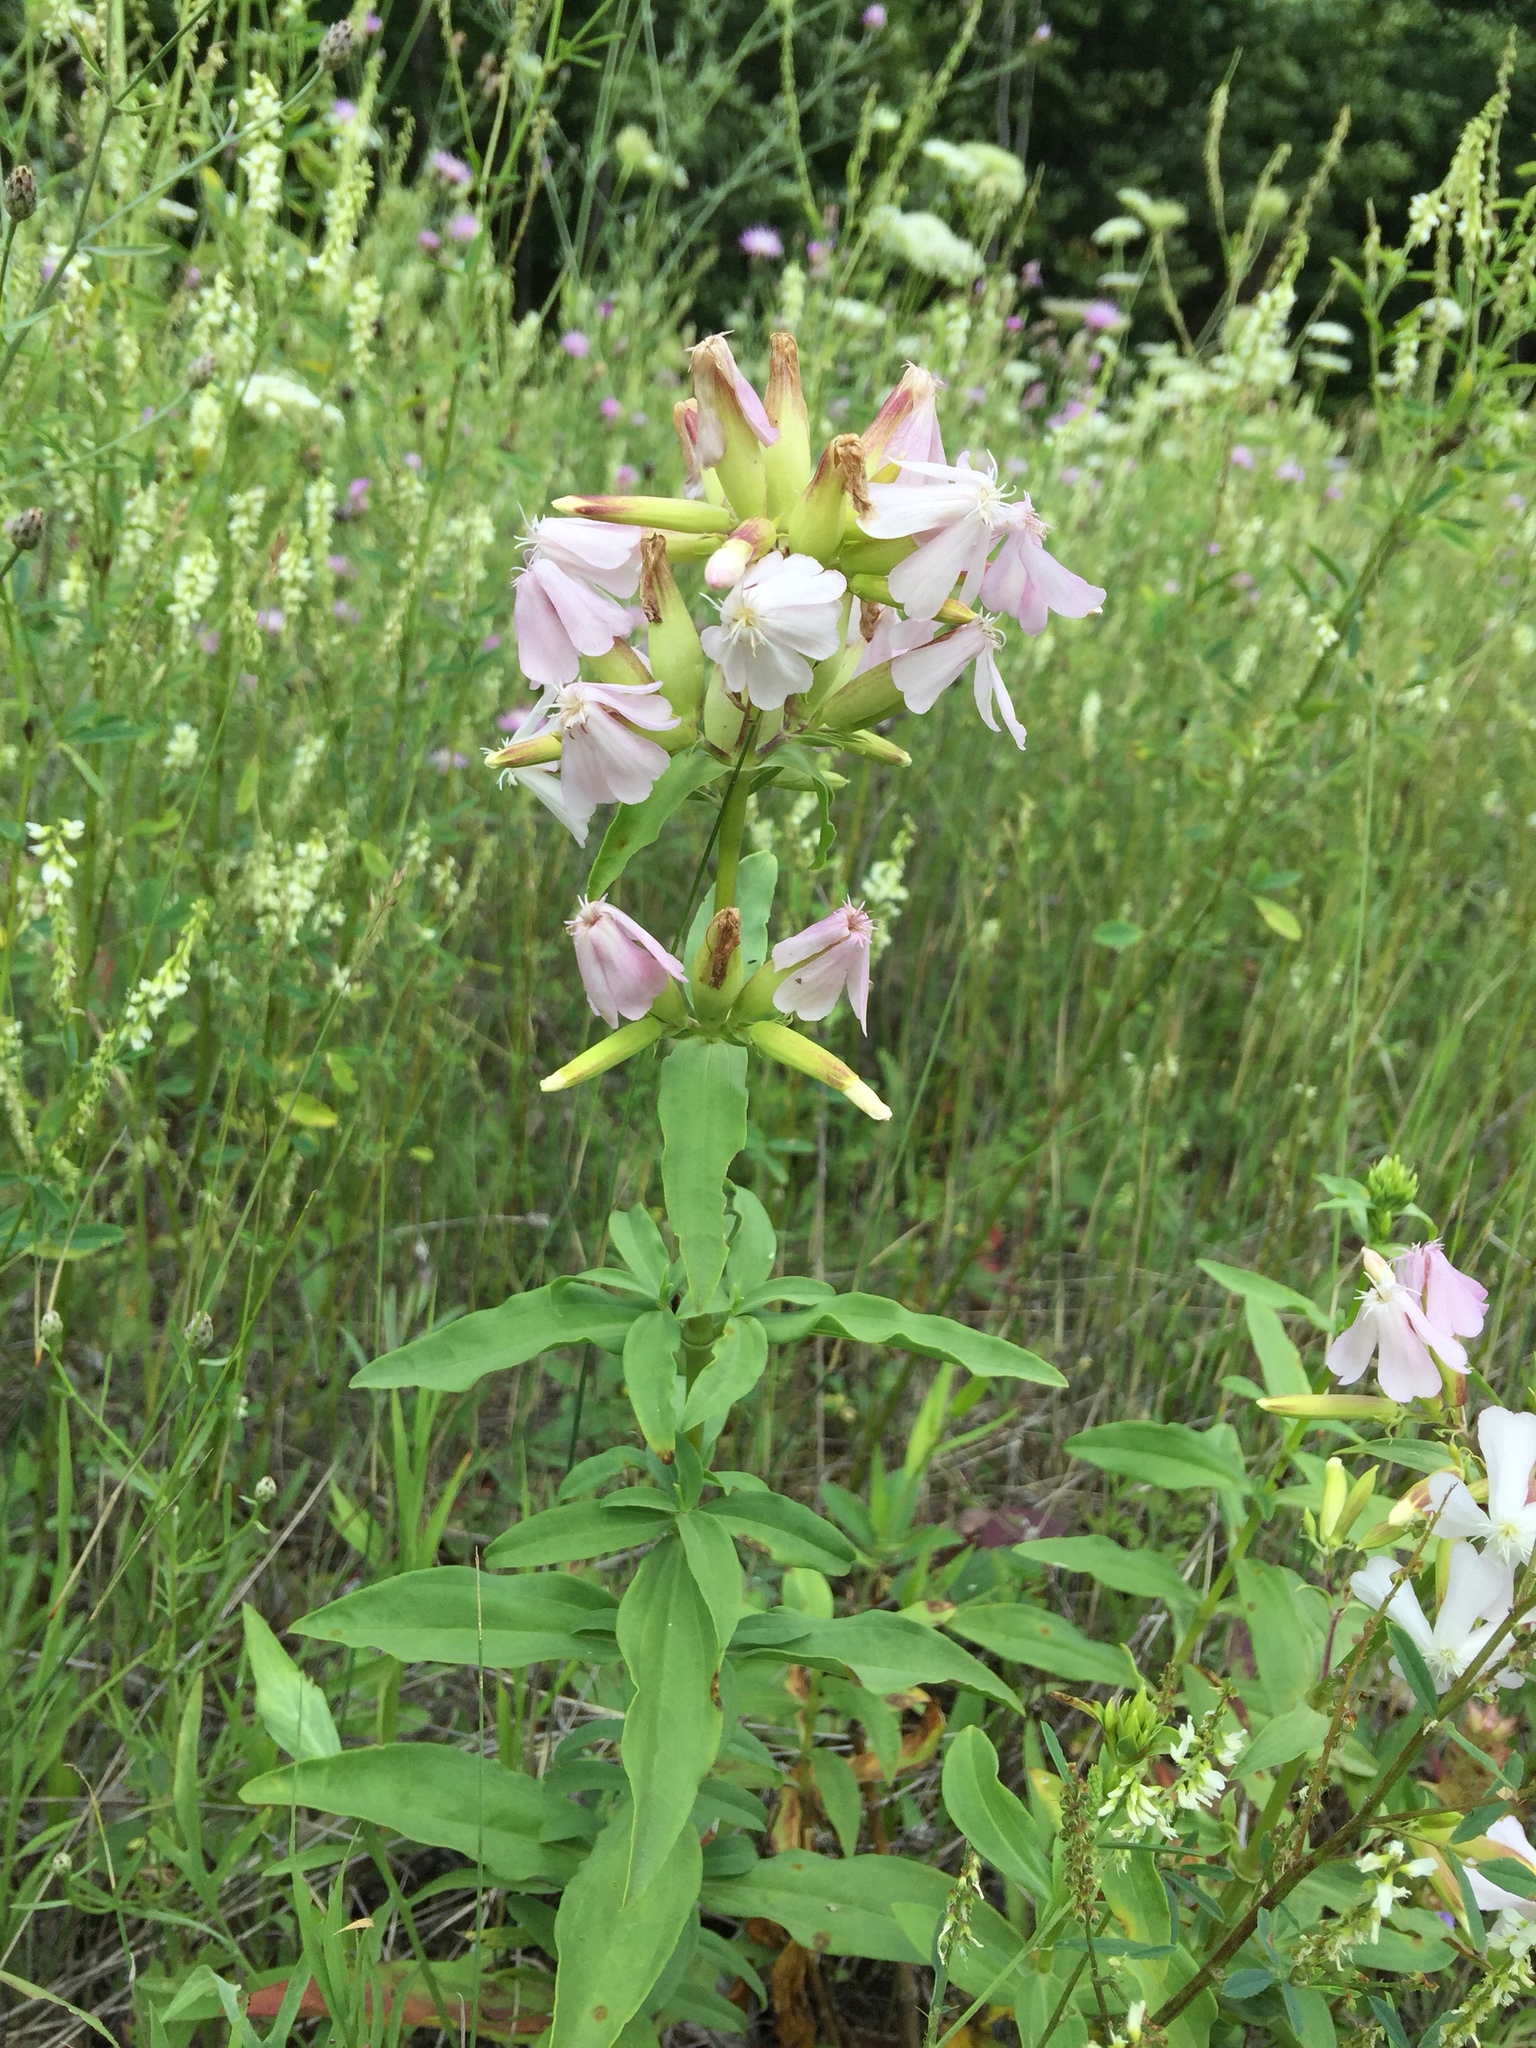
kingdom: Plantae
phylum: Tracheophyta
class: Magnoliopsida
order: Caryophyllales
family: Caryophyllaceae
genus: Saponaria
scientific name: Saponaria officinalis
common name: Soapwort
